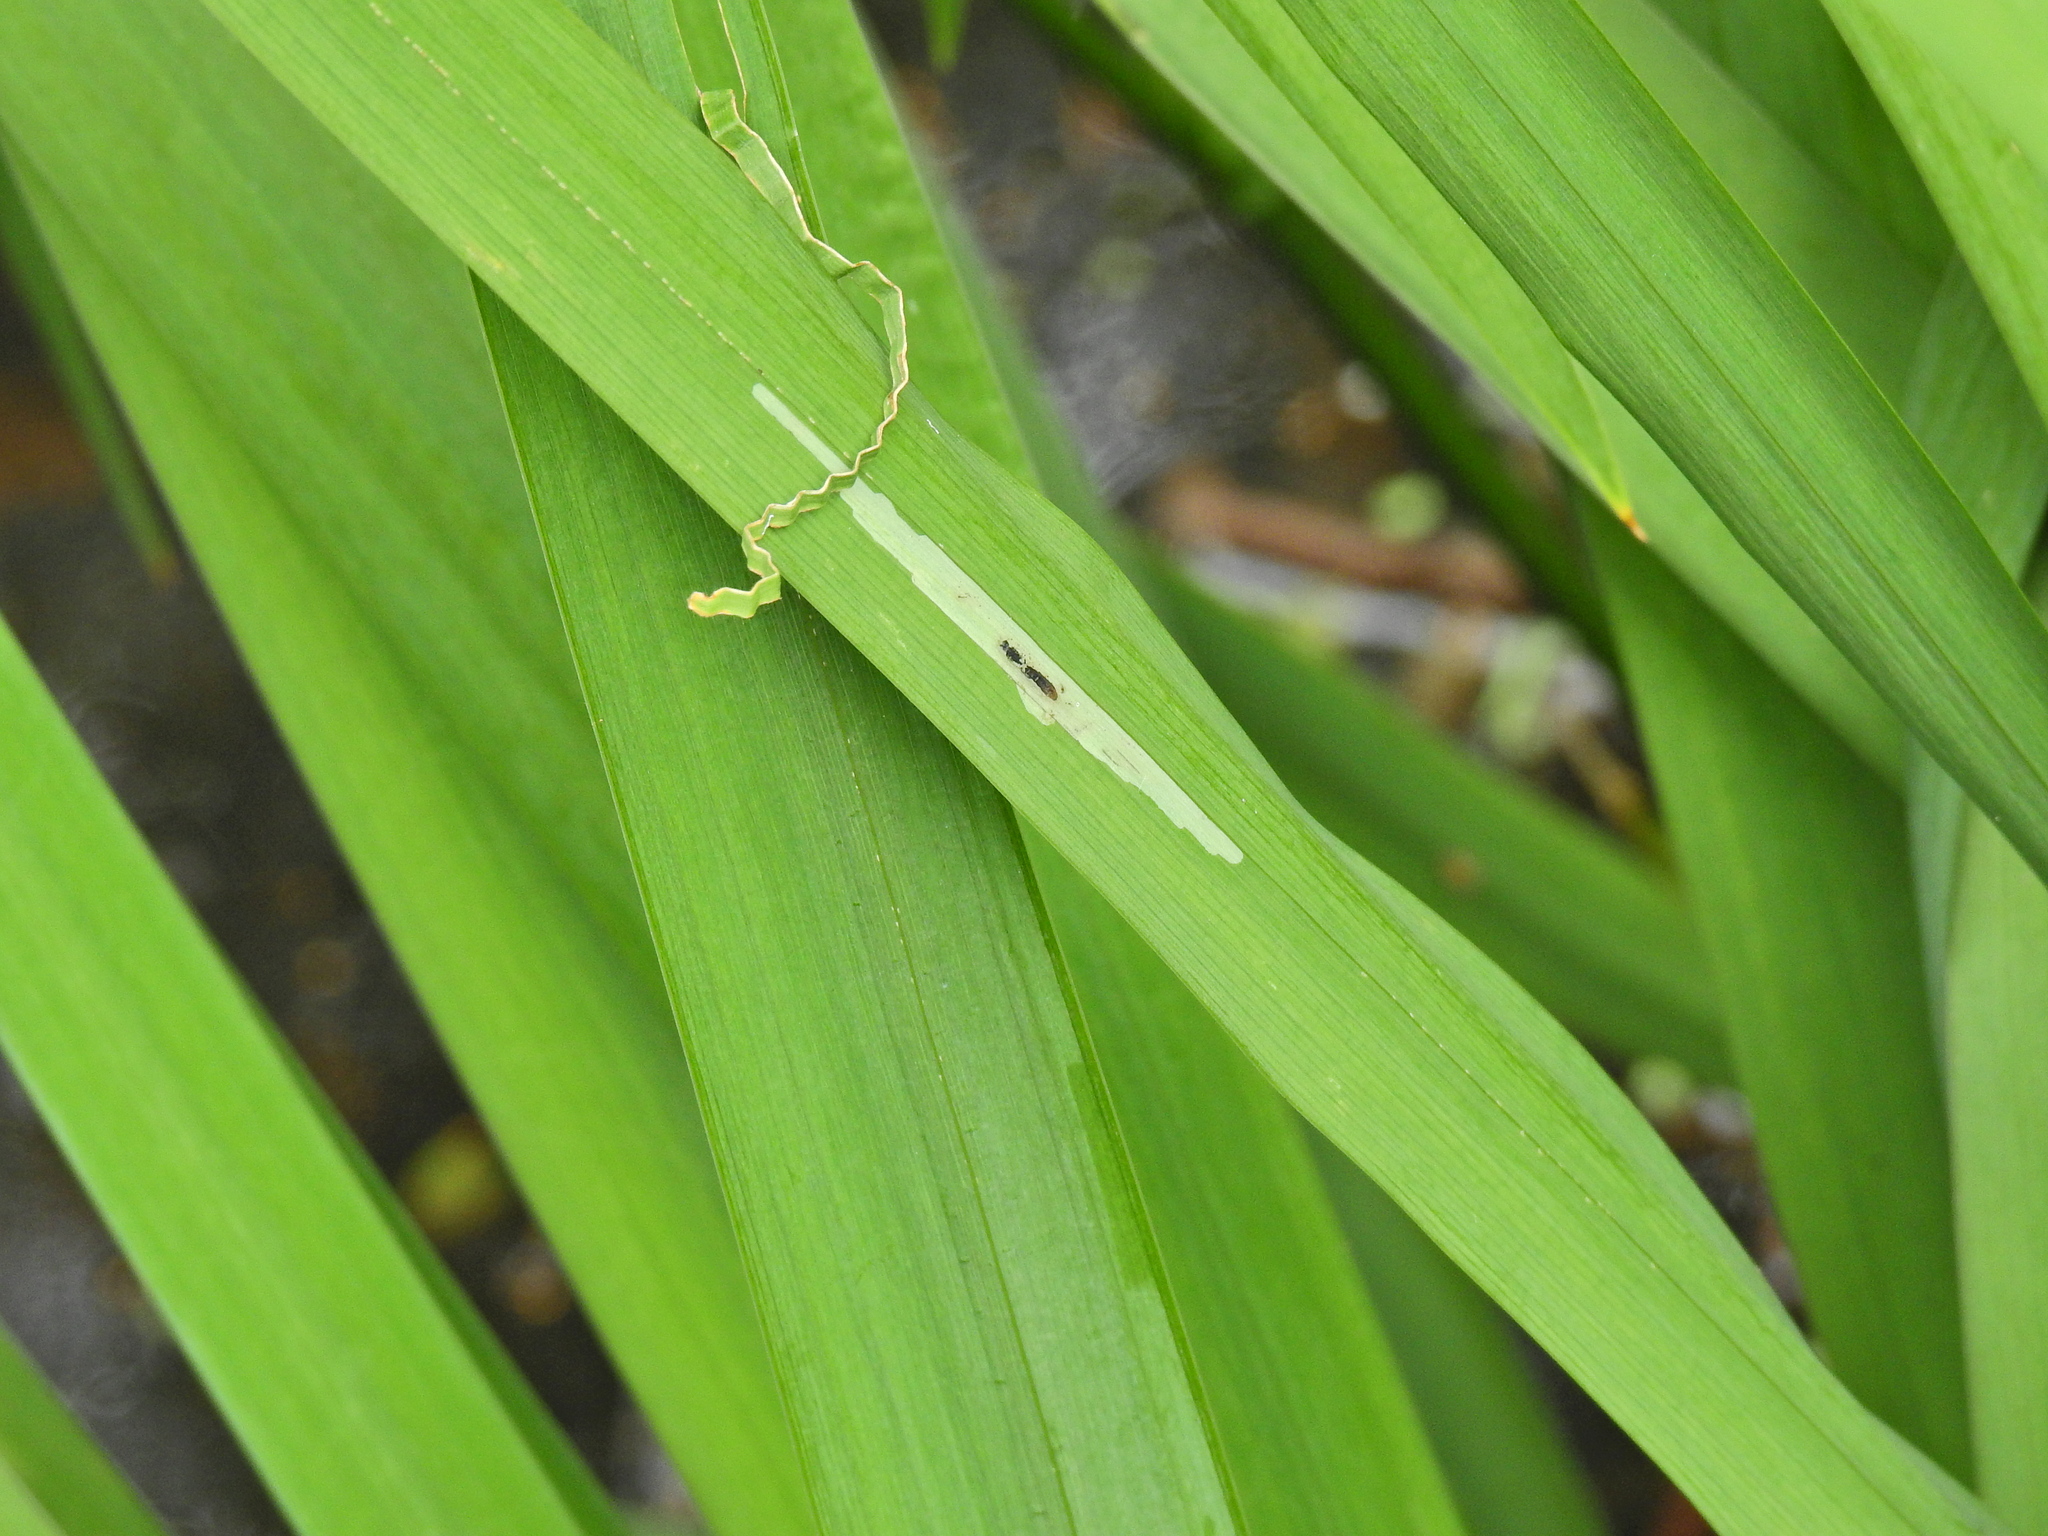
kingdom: Animalia
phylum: Arthropoda
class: Insecta
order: Diptera
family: Agromyzidae
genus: Cerodontha
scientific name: Cerodontha ircos
